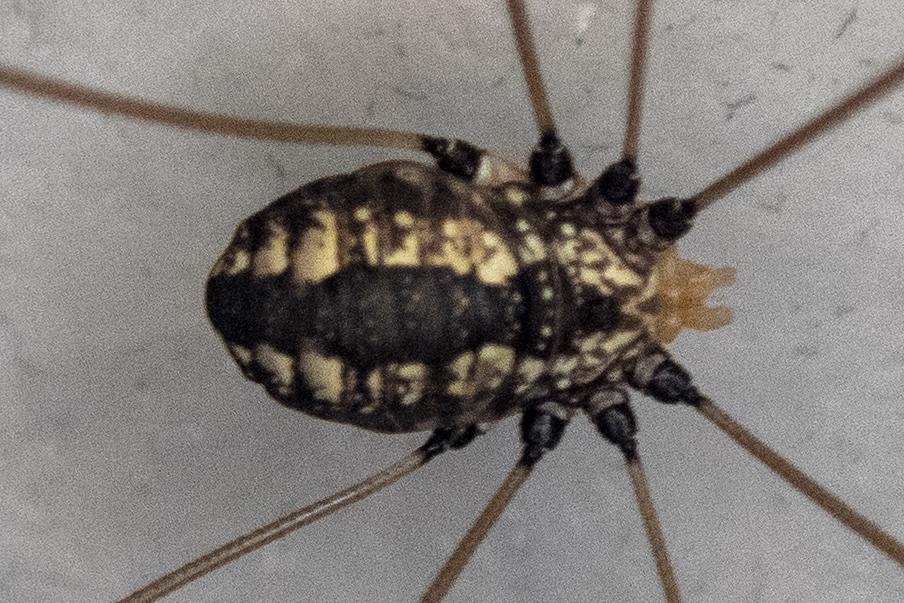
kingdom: Animalia
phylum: Arthropoda
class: Arachnida
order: Opiliones
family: Sclerosomatidae
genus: Leiobunum
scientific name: Leiobunum vittatum
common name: Eastern harvestman
